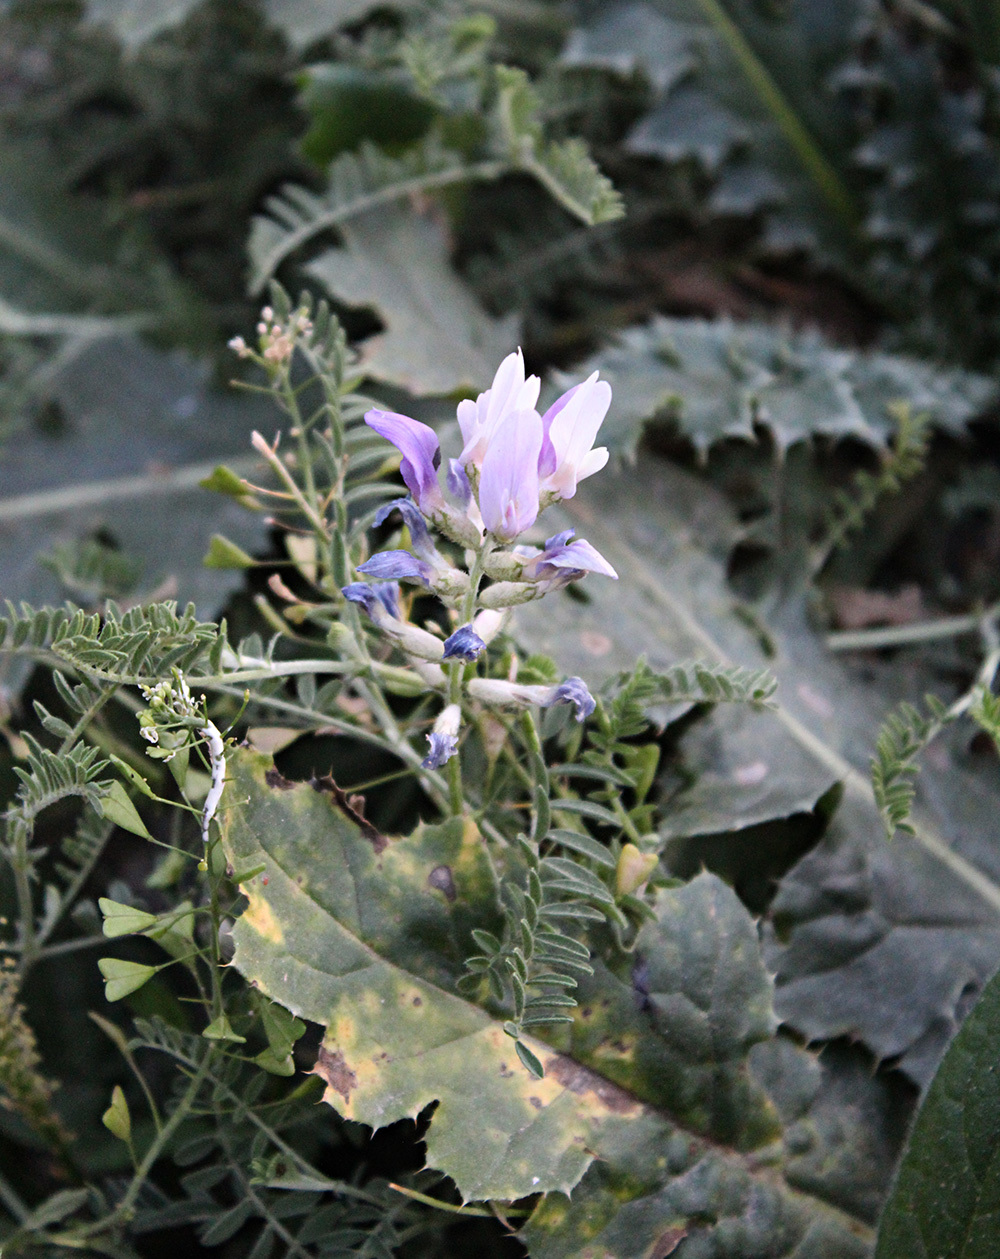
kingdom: Chromista
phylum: Oomycota
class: Peronosporea
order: Albuginales
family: Albuginaceae
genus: Albugo
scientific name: Albugo candida
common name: Crucifer white blister
